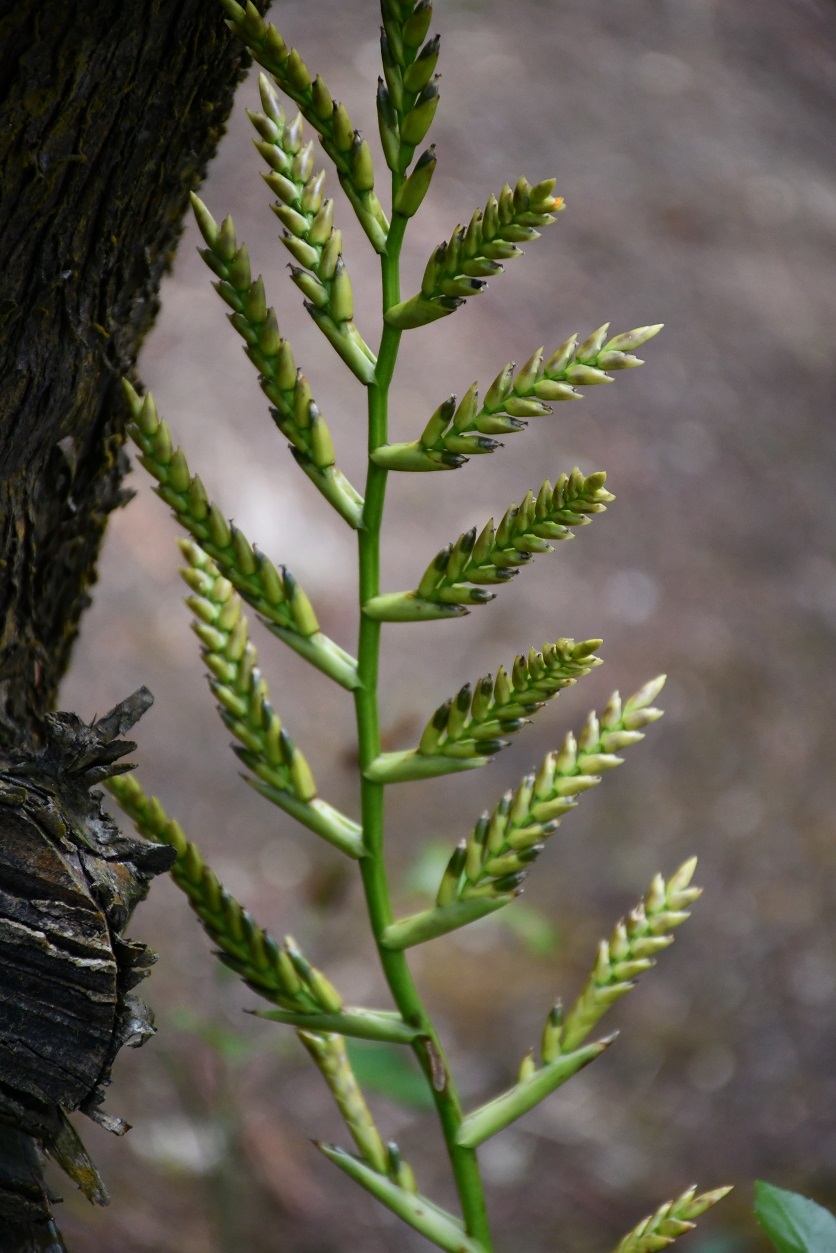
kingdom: Plantae
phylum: Tracheophyta
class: Liliopsida
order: Poales
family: Bromeliaceae
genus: Racinaea
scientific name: Racinaea rothschuhiana
